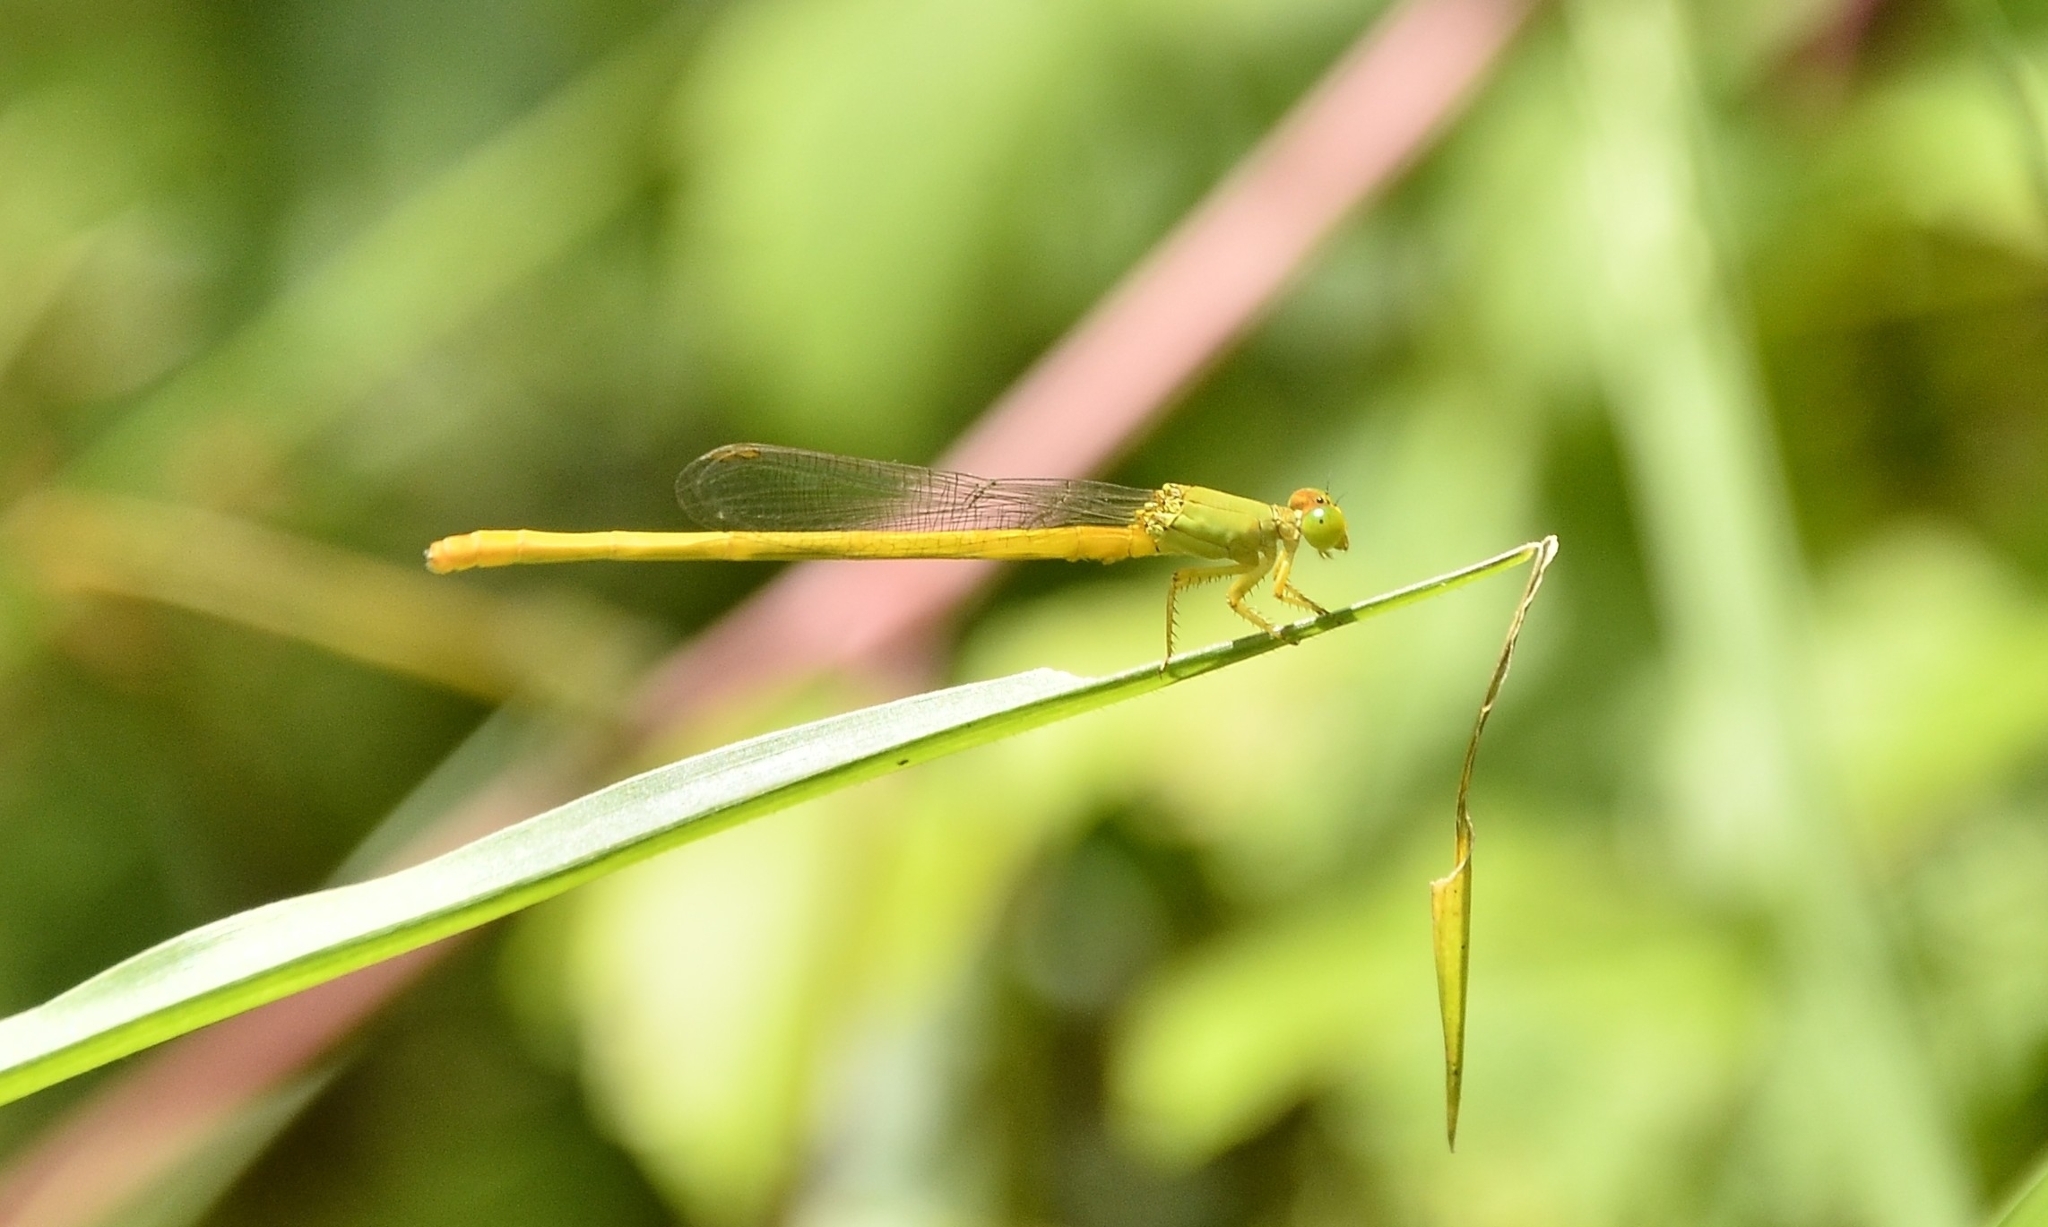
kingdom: Animalia
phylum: Arthropoda
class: Insecta
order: Odonata
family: Coenagrionidae
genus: Ceriagrion
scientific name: Ceriagrion coromandelianum
